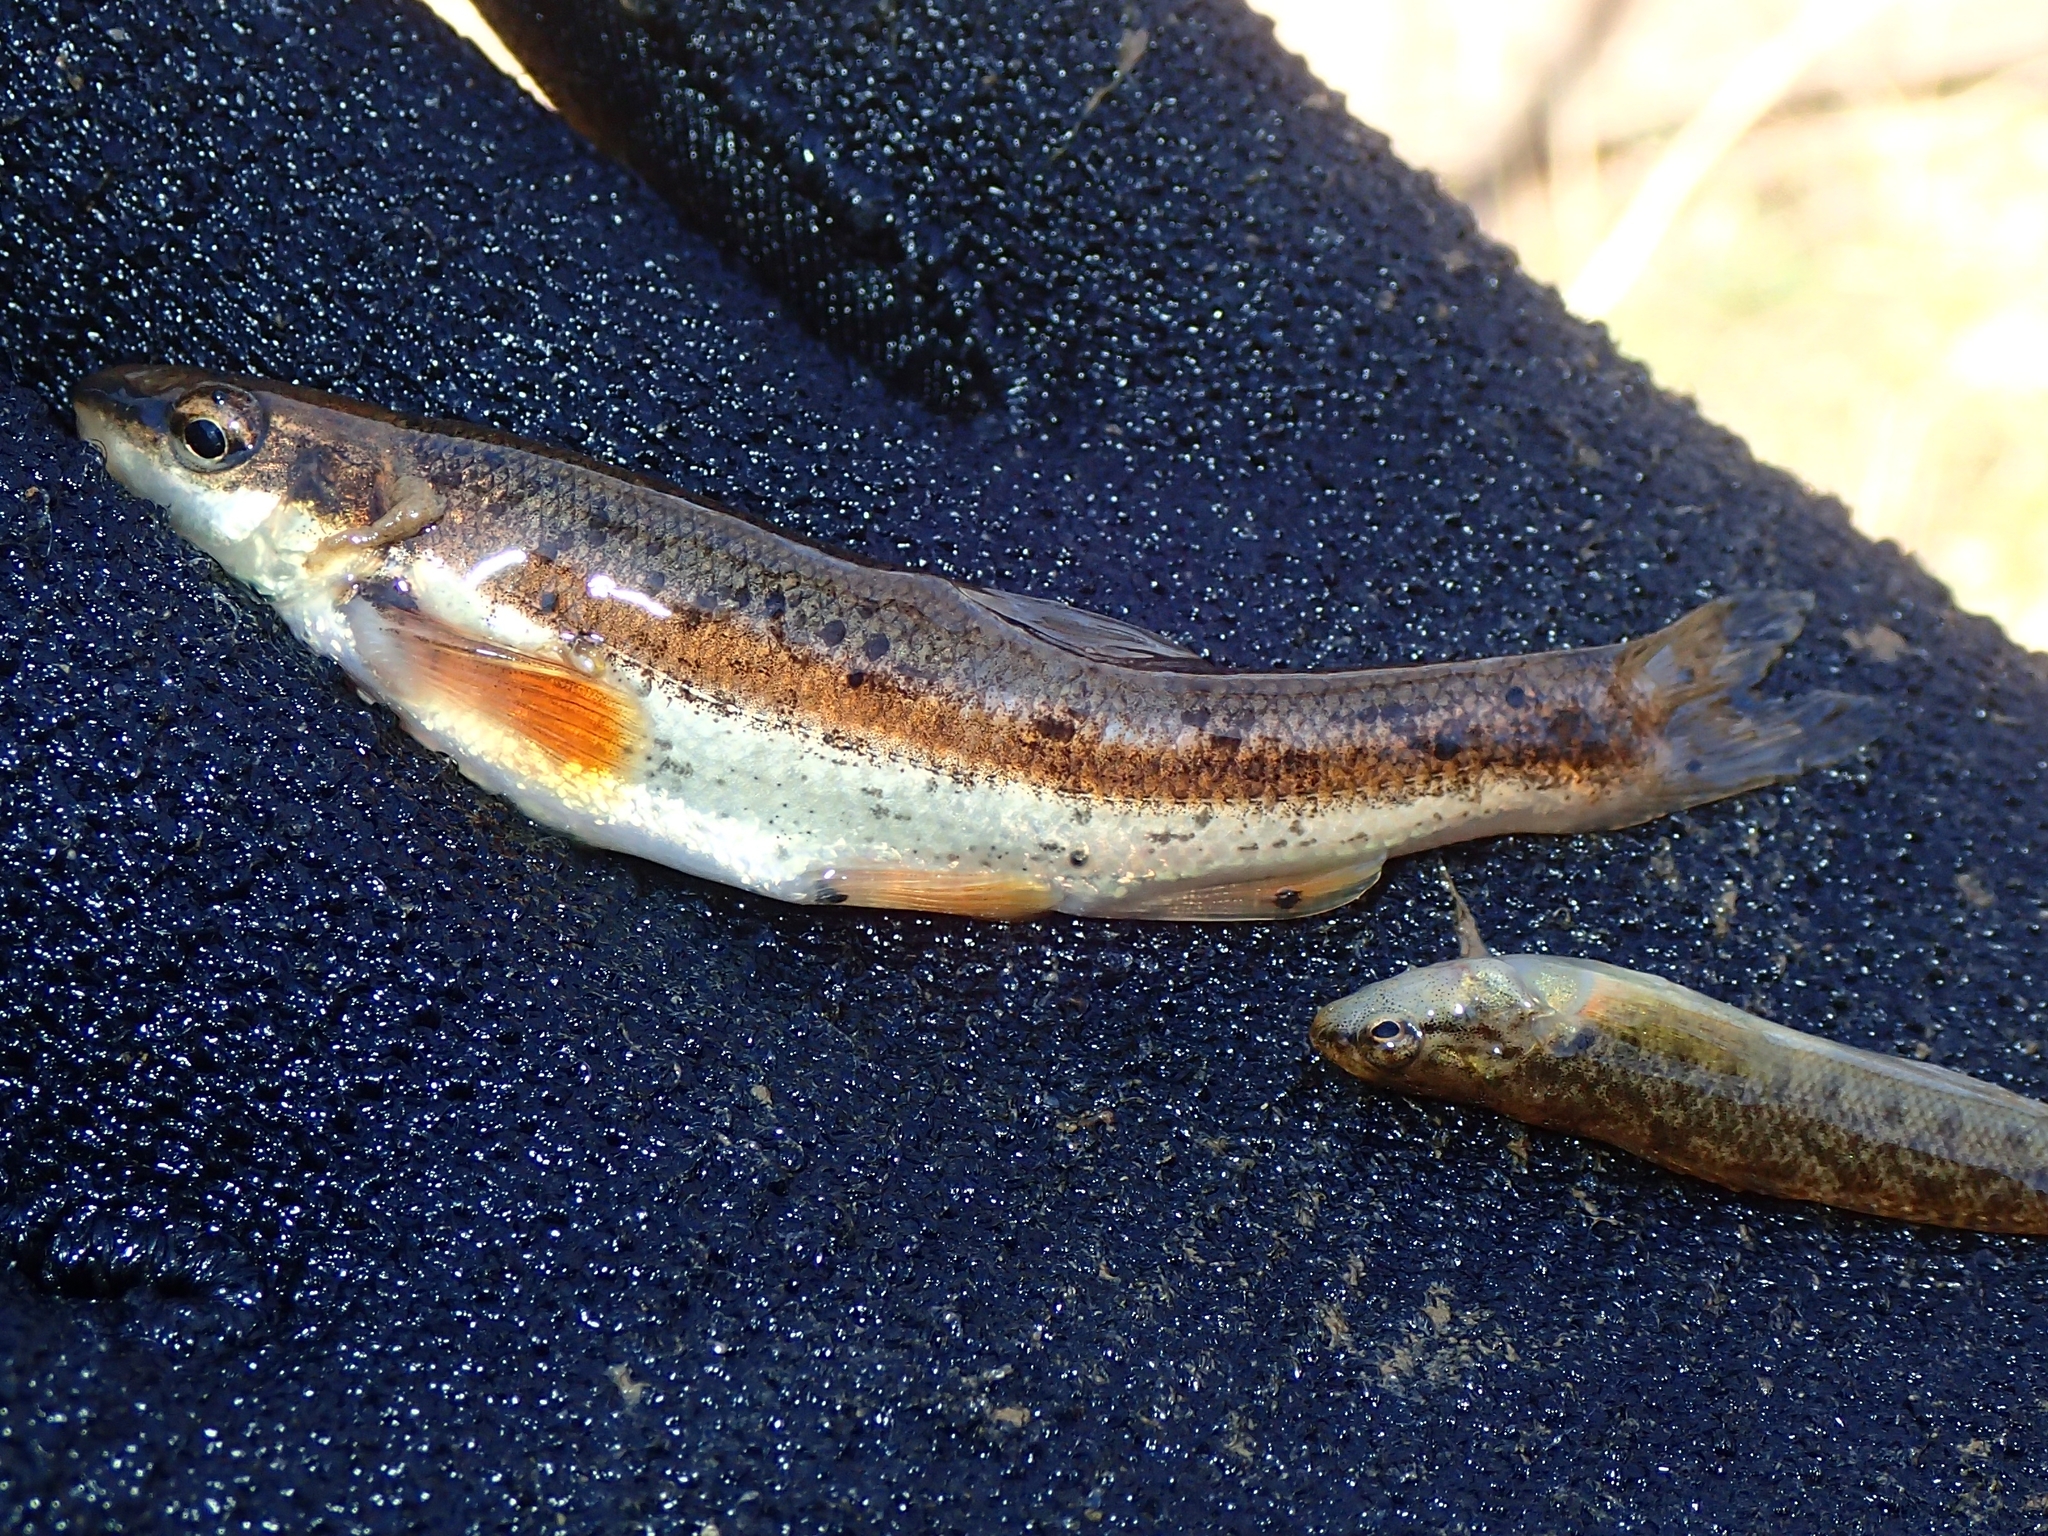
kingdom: Animalia
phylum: Chordata
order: Cypriniformes
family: Cyprinidae
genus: Rhinichthys
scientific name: Rhinichthys atratulus
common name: Eastern blacknose dace
